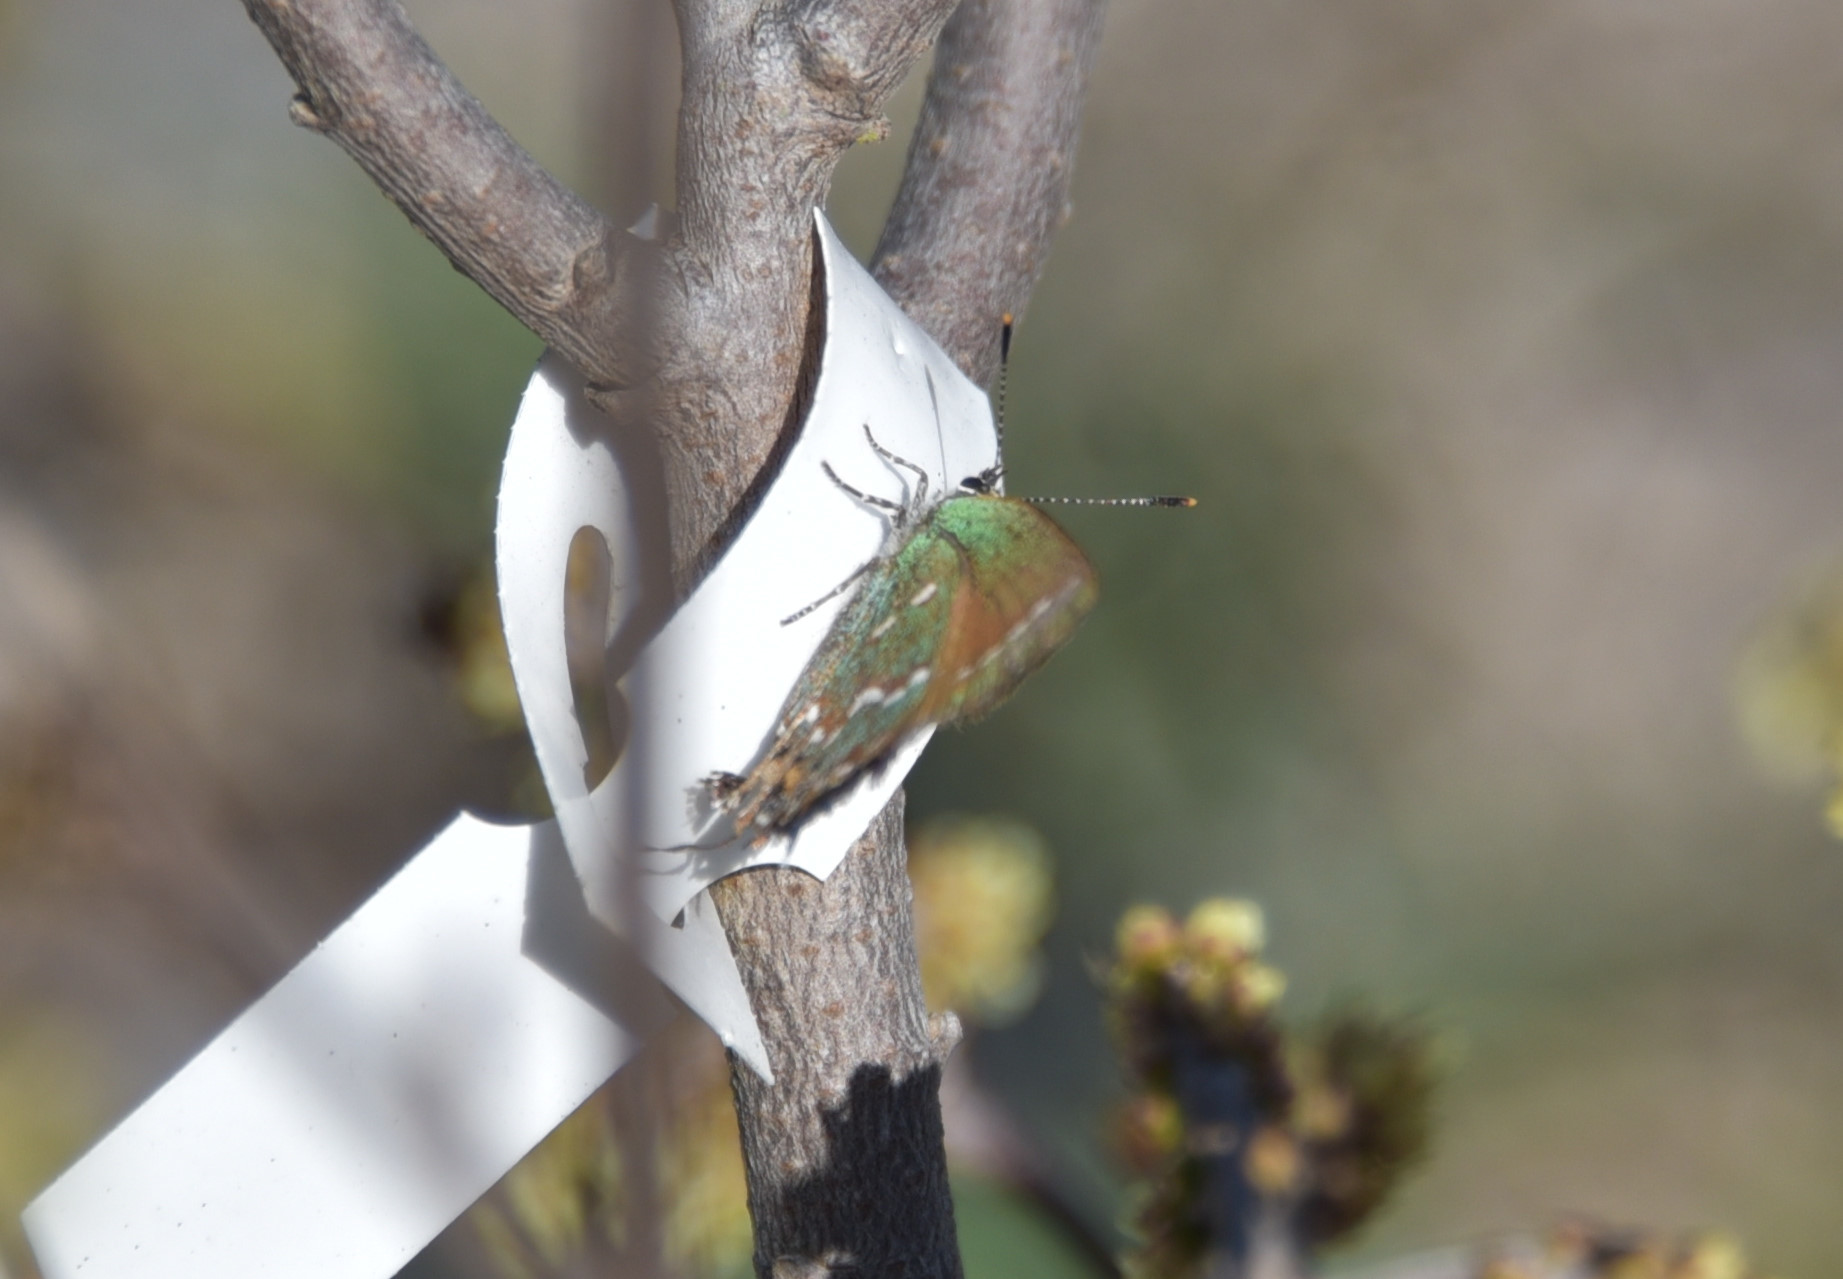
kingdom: Animalia
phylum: Arthropoda
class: Insecta
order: Lepidoptera
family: Lycaenidae
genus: Mitoura
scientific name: Mitoura gryneus
